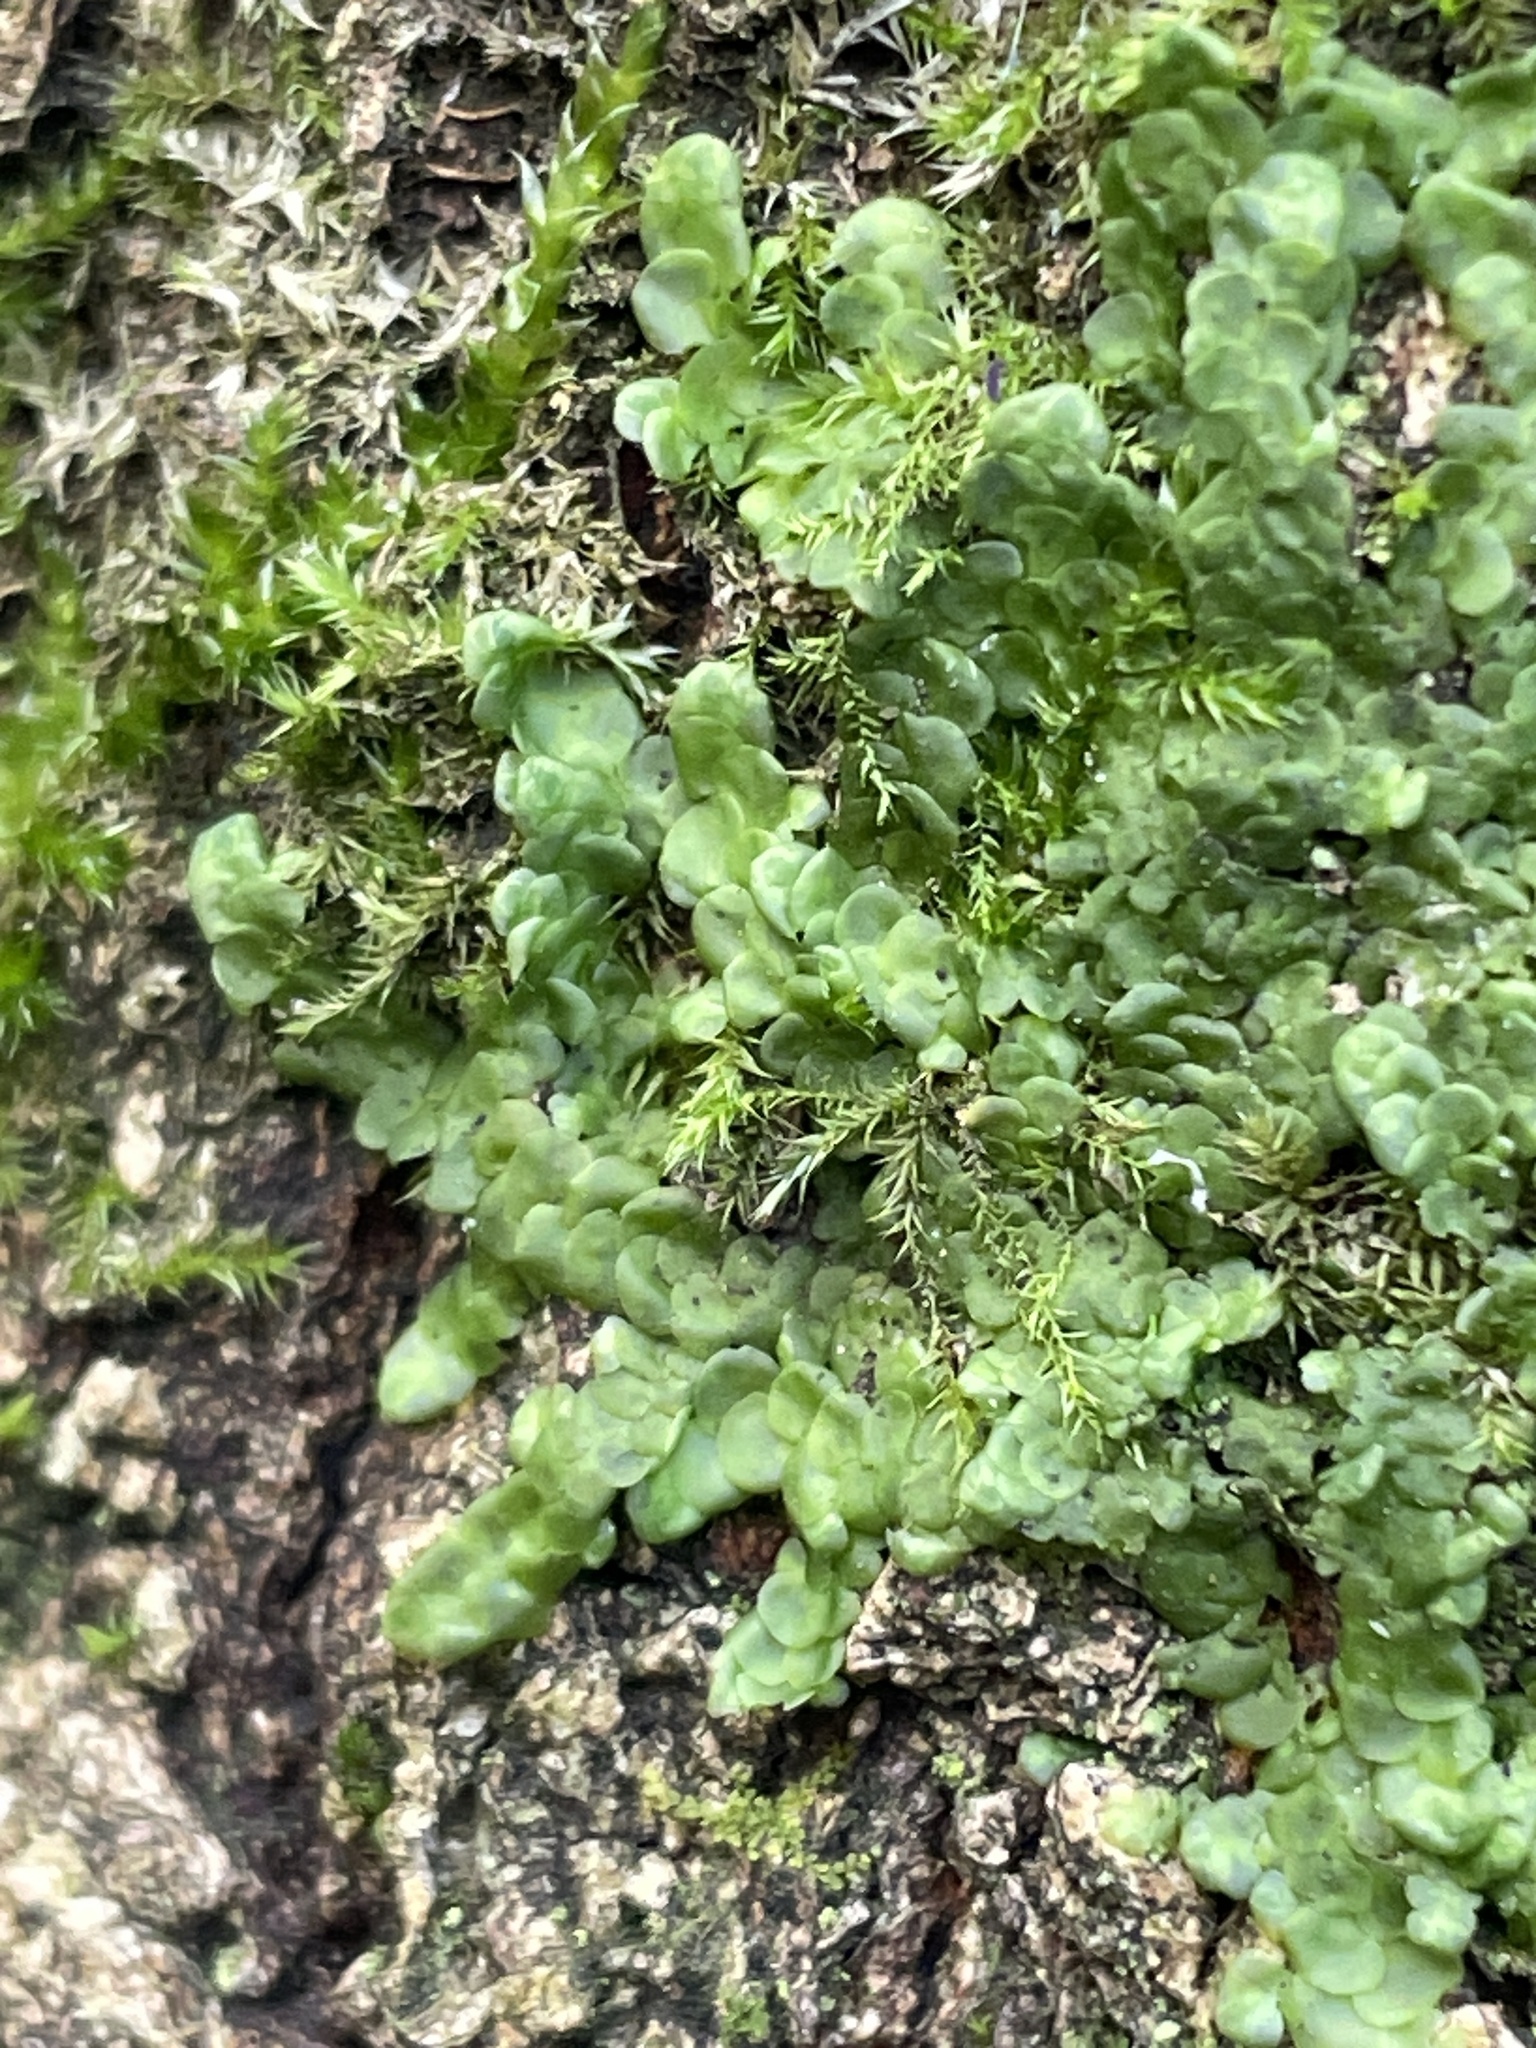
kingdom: Plantae
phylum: Marchantiophyta
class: Jungermanniopsida
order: Porellales
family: Radulaceae
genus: Radula
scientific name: Radula complanata
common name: Flat-leaved scalewort
